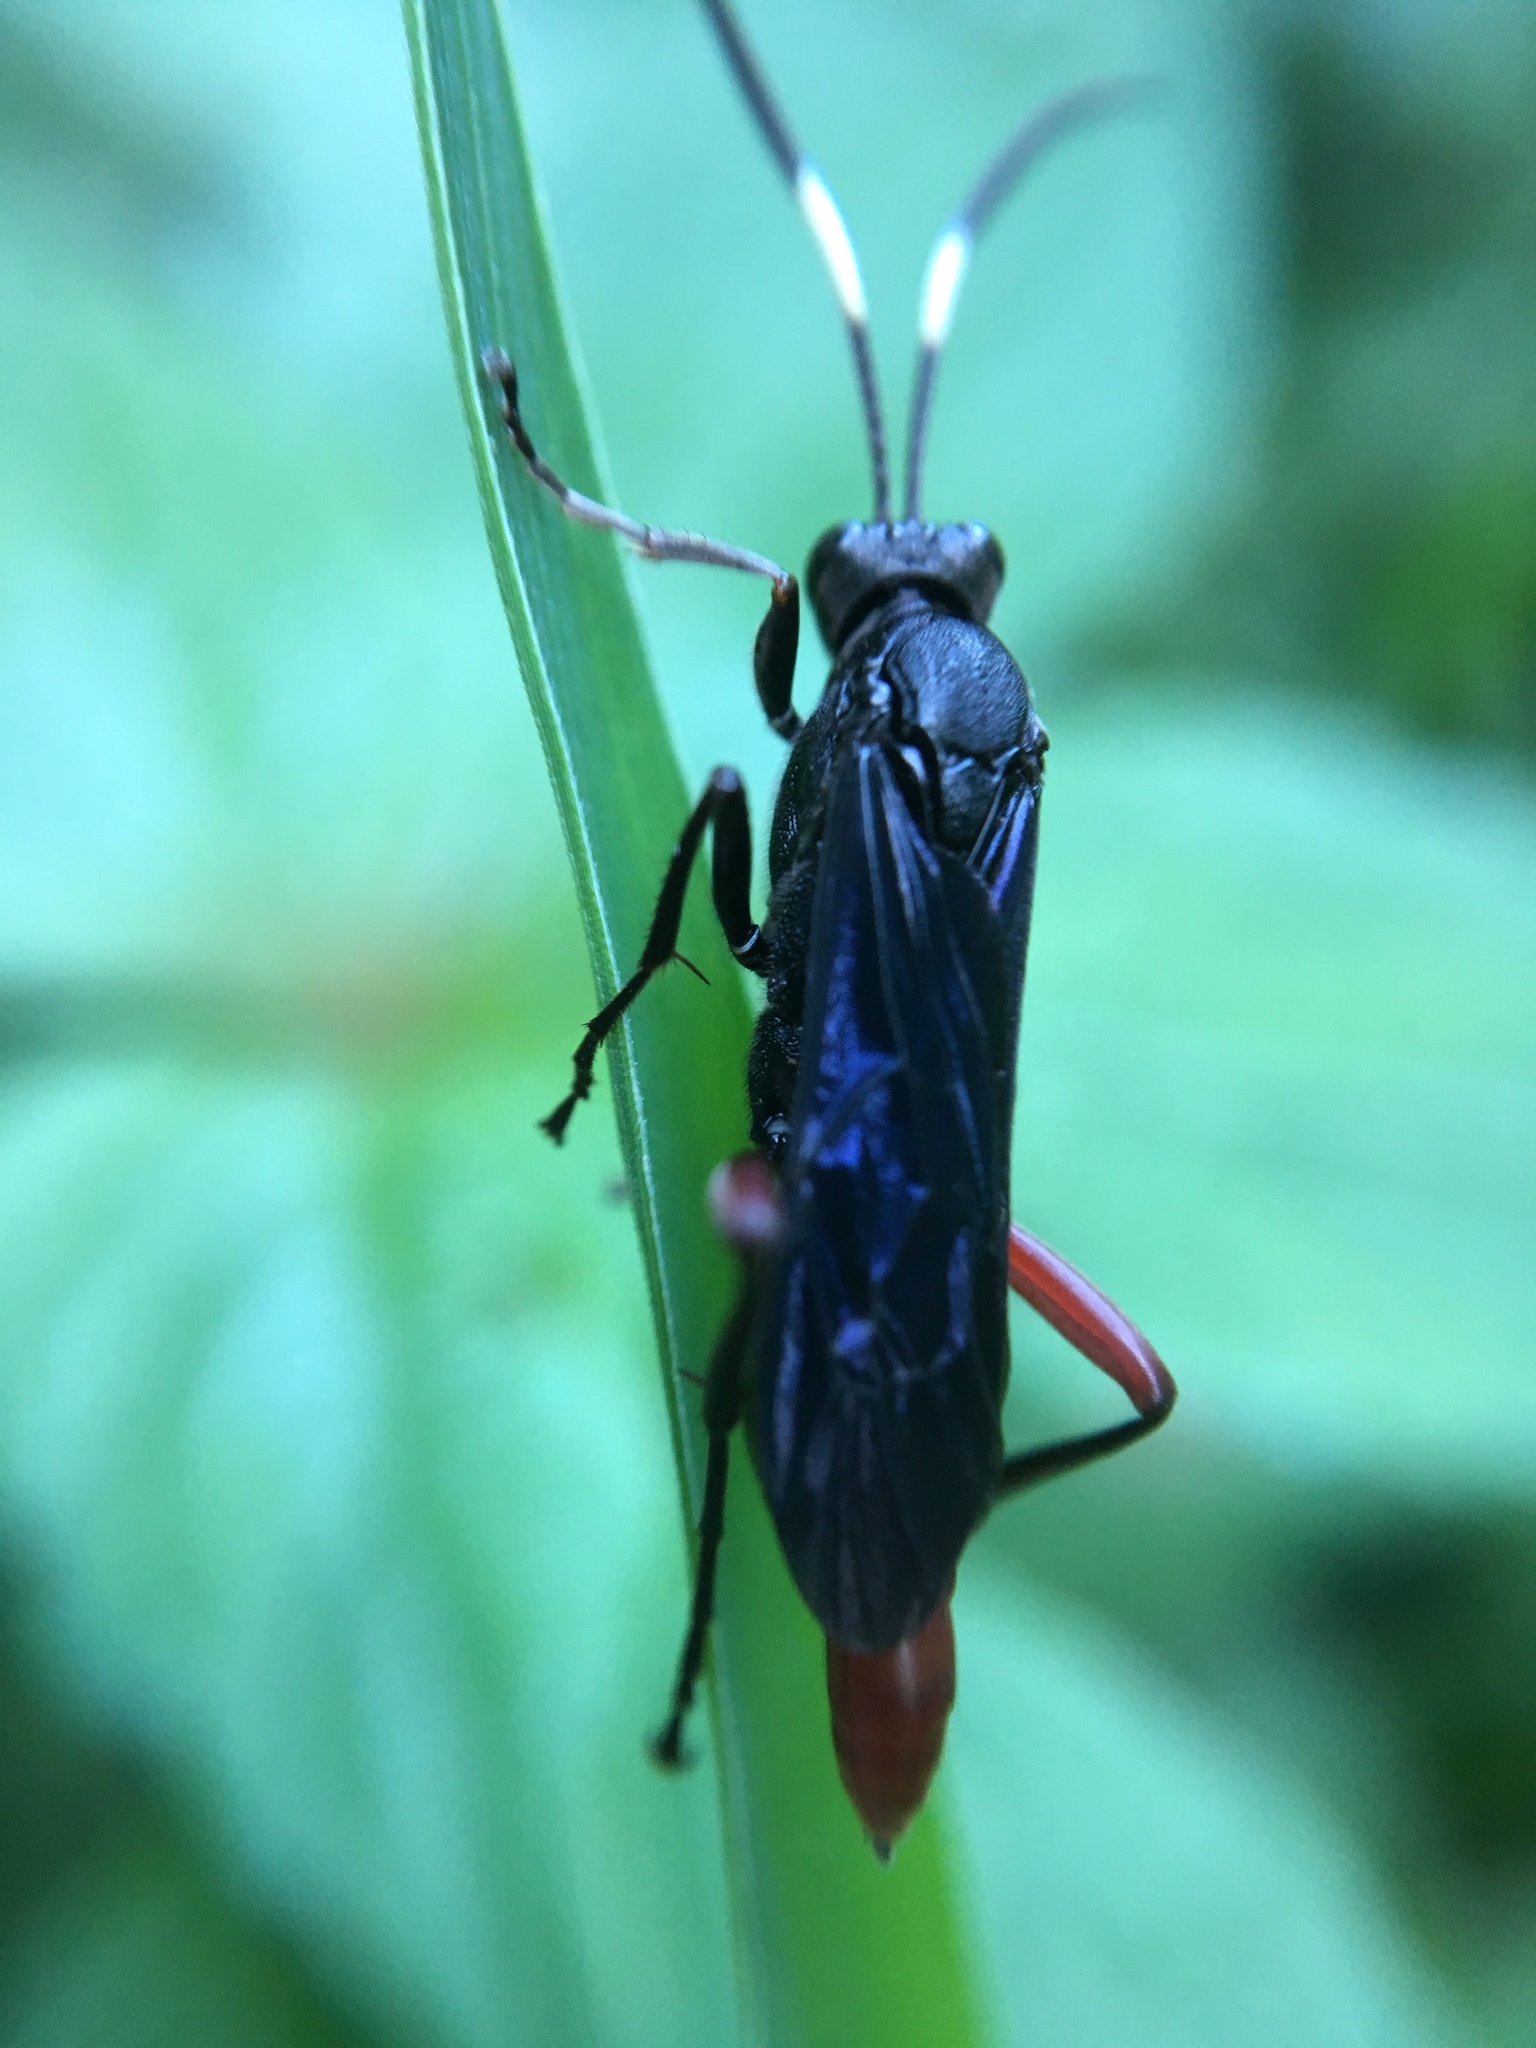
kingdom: Animalia
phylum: Arthropoda
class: Insecta
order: Hymenoptera
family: Ichneumonidae
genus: Limonethe
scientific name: Limonethe maurator
